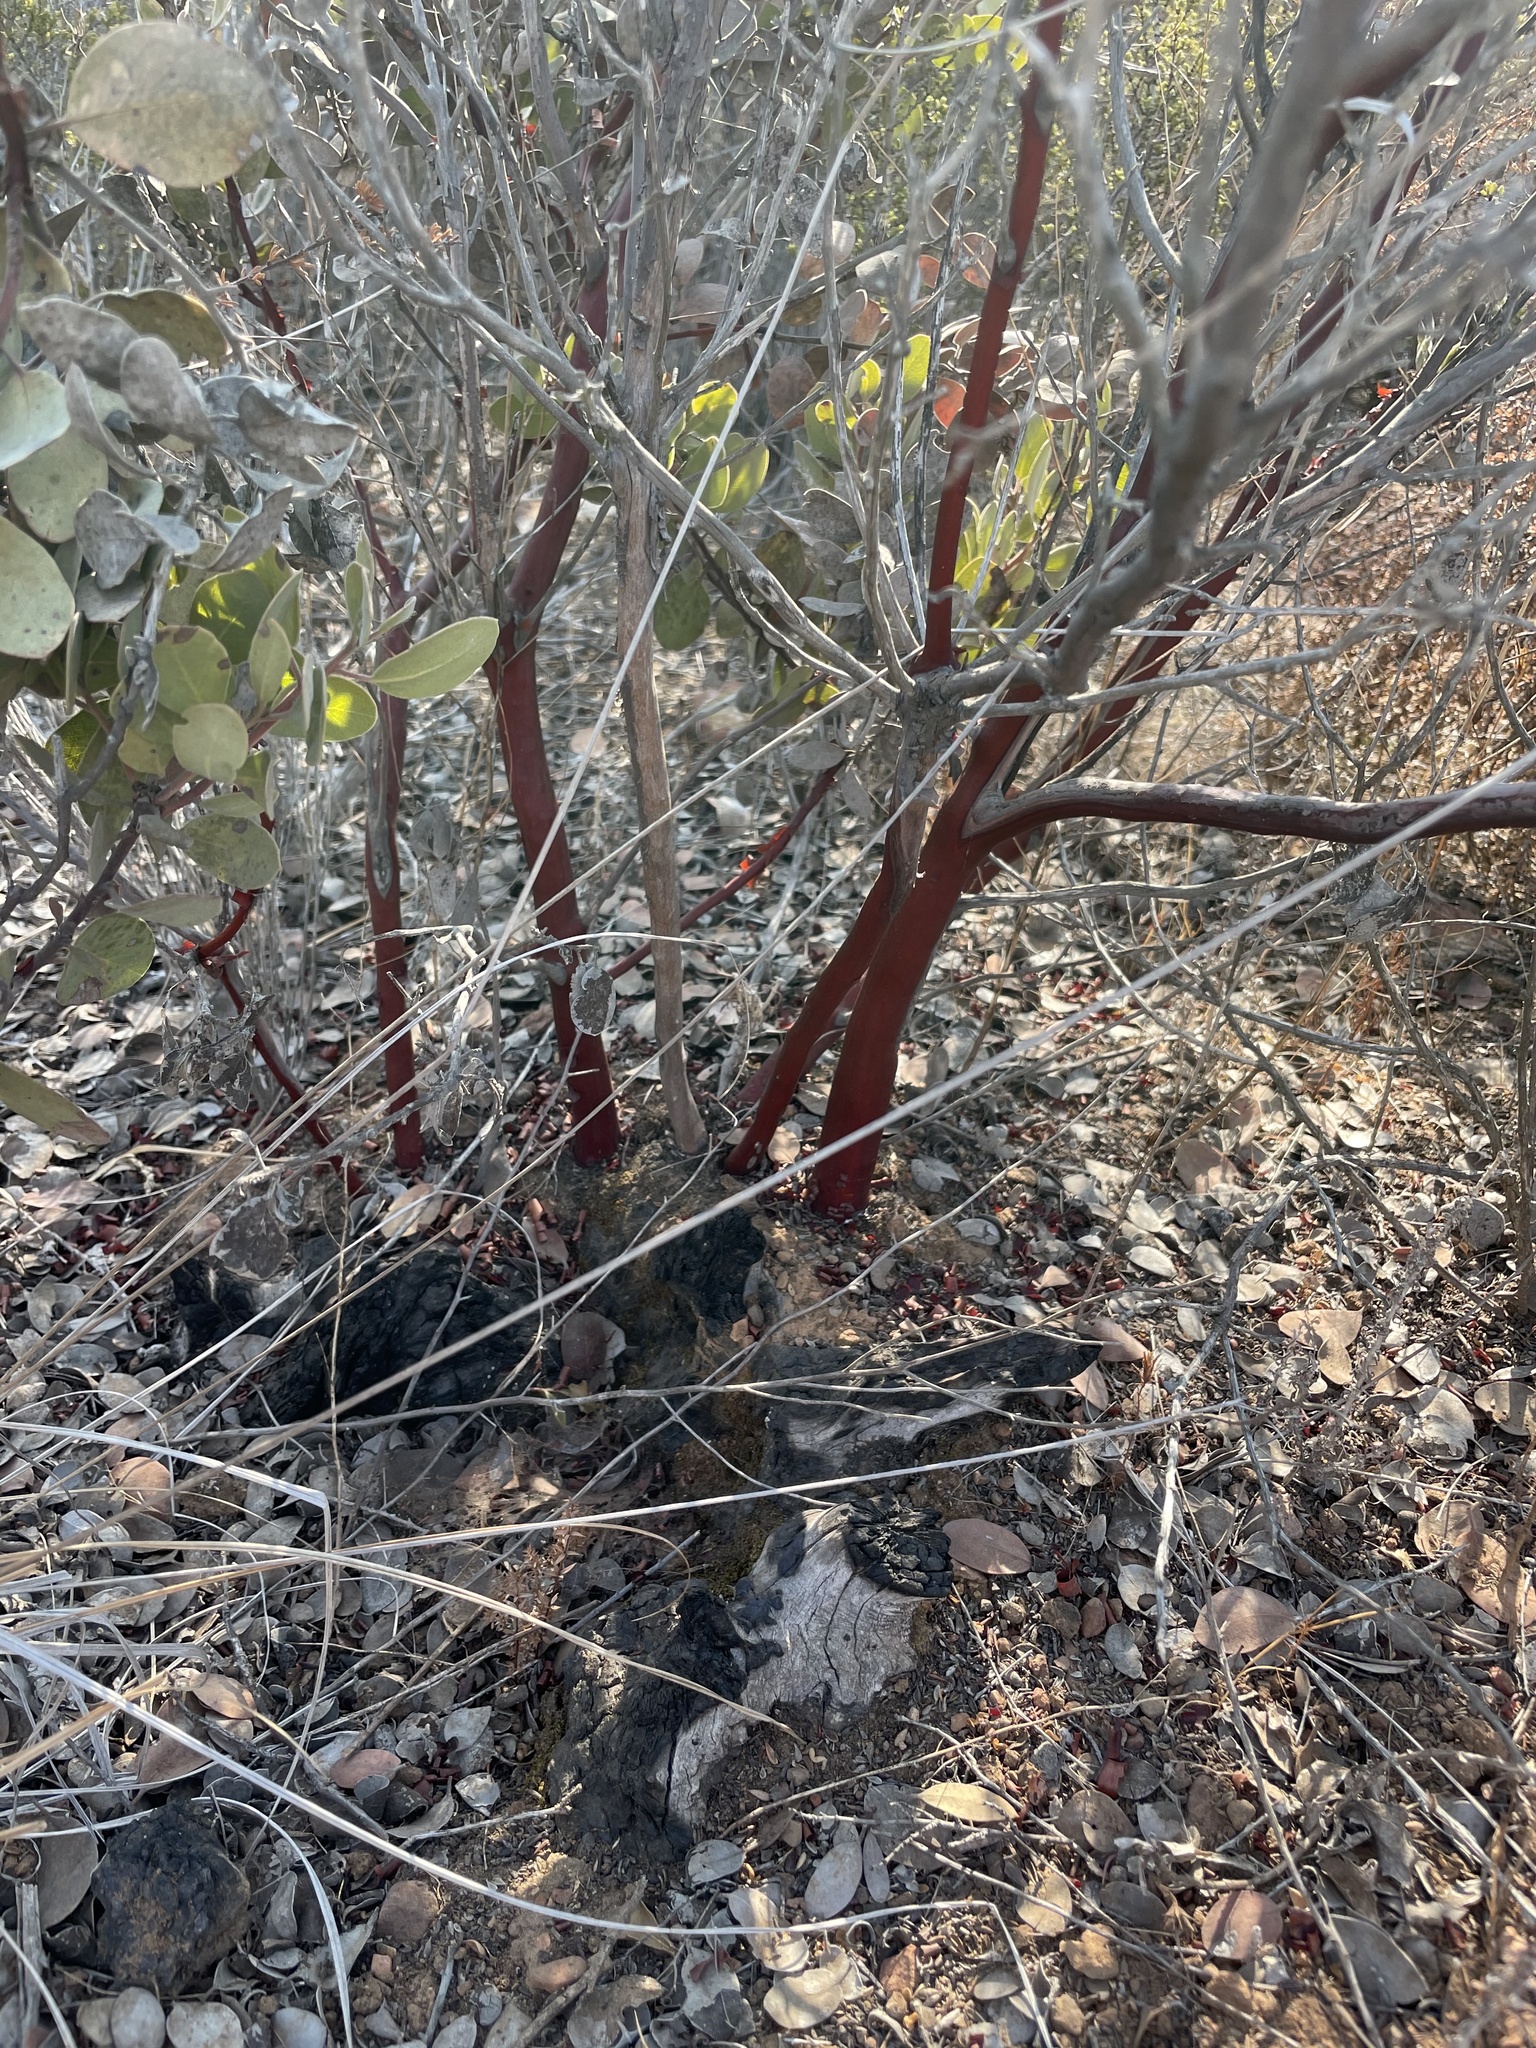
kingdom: Plantae
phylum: Tracheophyta
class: Magnoliopsida
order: Ericales
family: Ericaceae
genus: Arctostaphylos
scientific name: Arctostaphylos glandulosa
